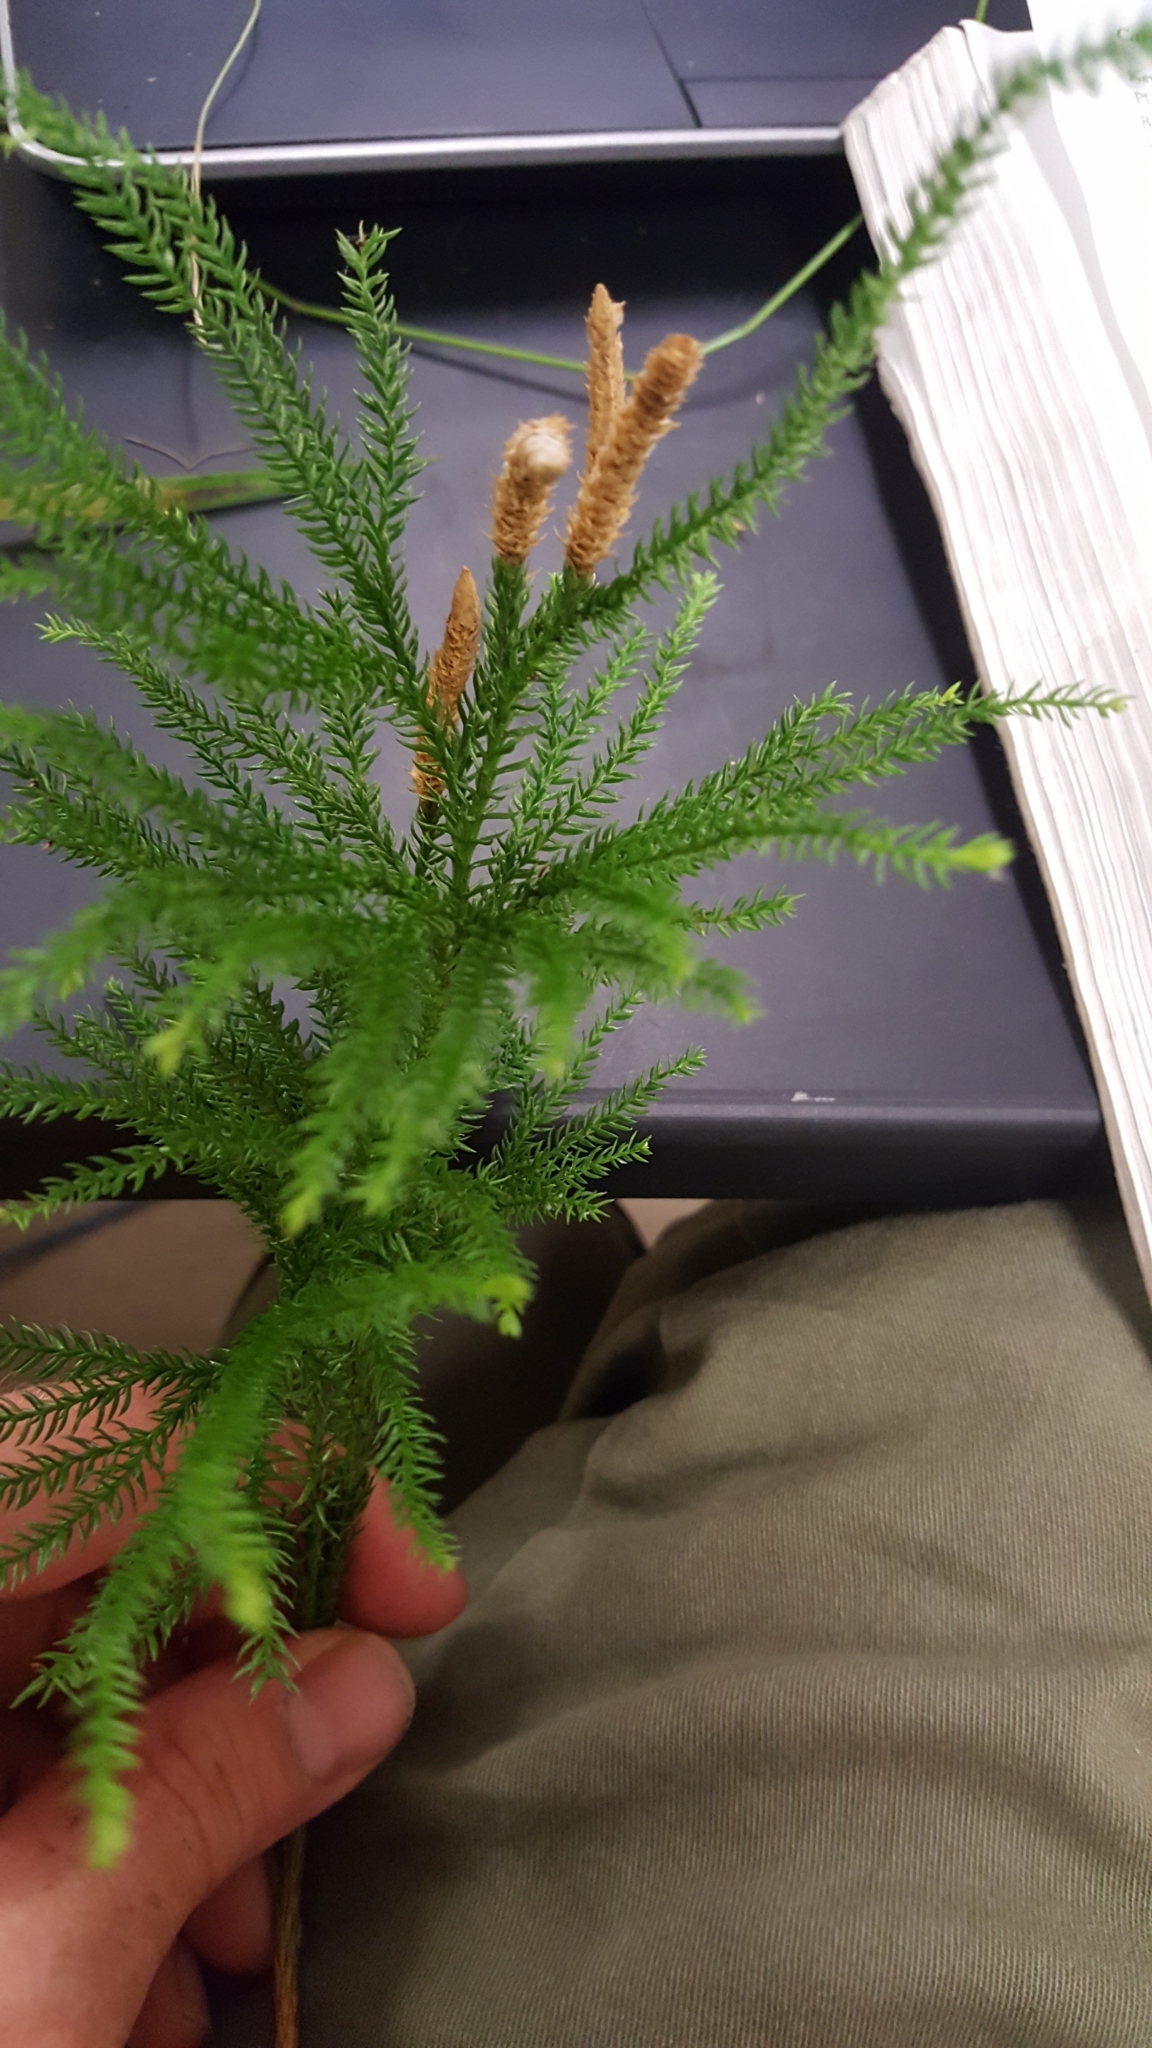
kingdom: Plantae
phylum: Tracheophyta
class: Lycopodiopsida
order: Lycopodiales
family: Lycopodiaceae
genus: Dendrolycopodium
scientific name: Dendrolycopodium dendroideum
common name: Northern tree-clubmoss
